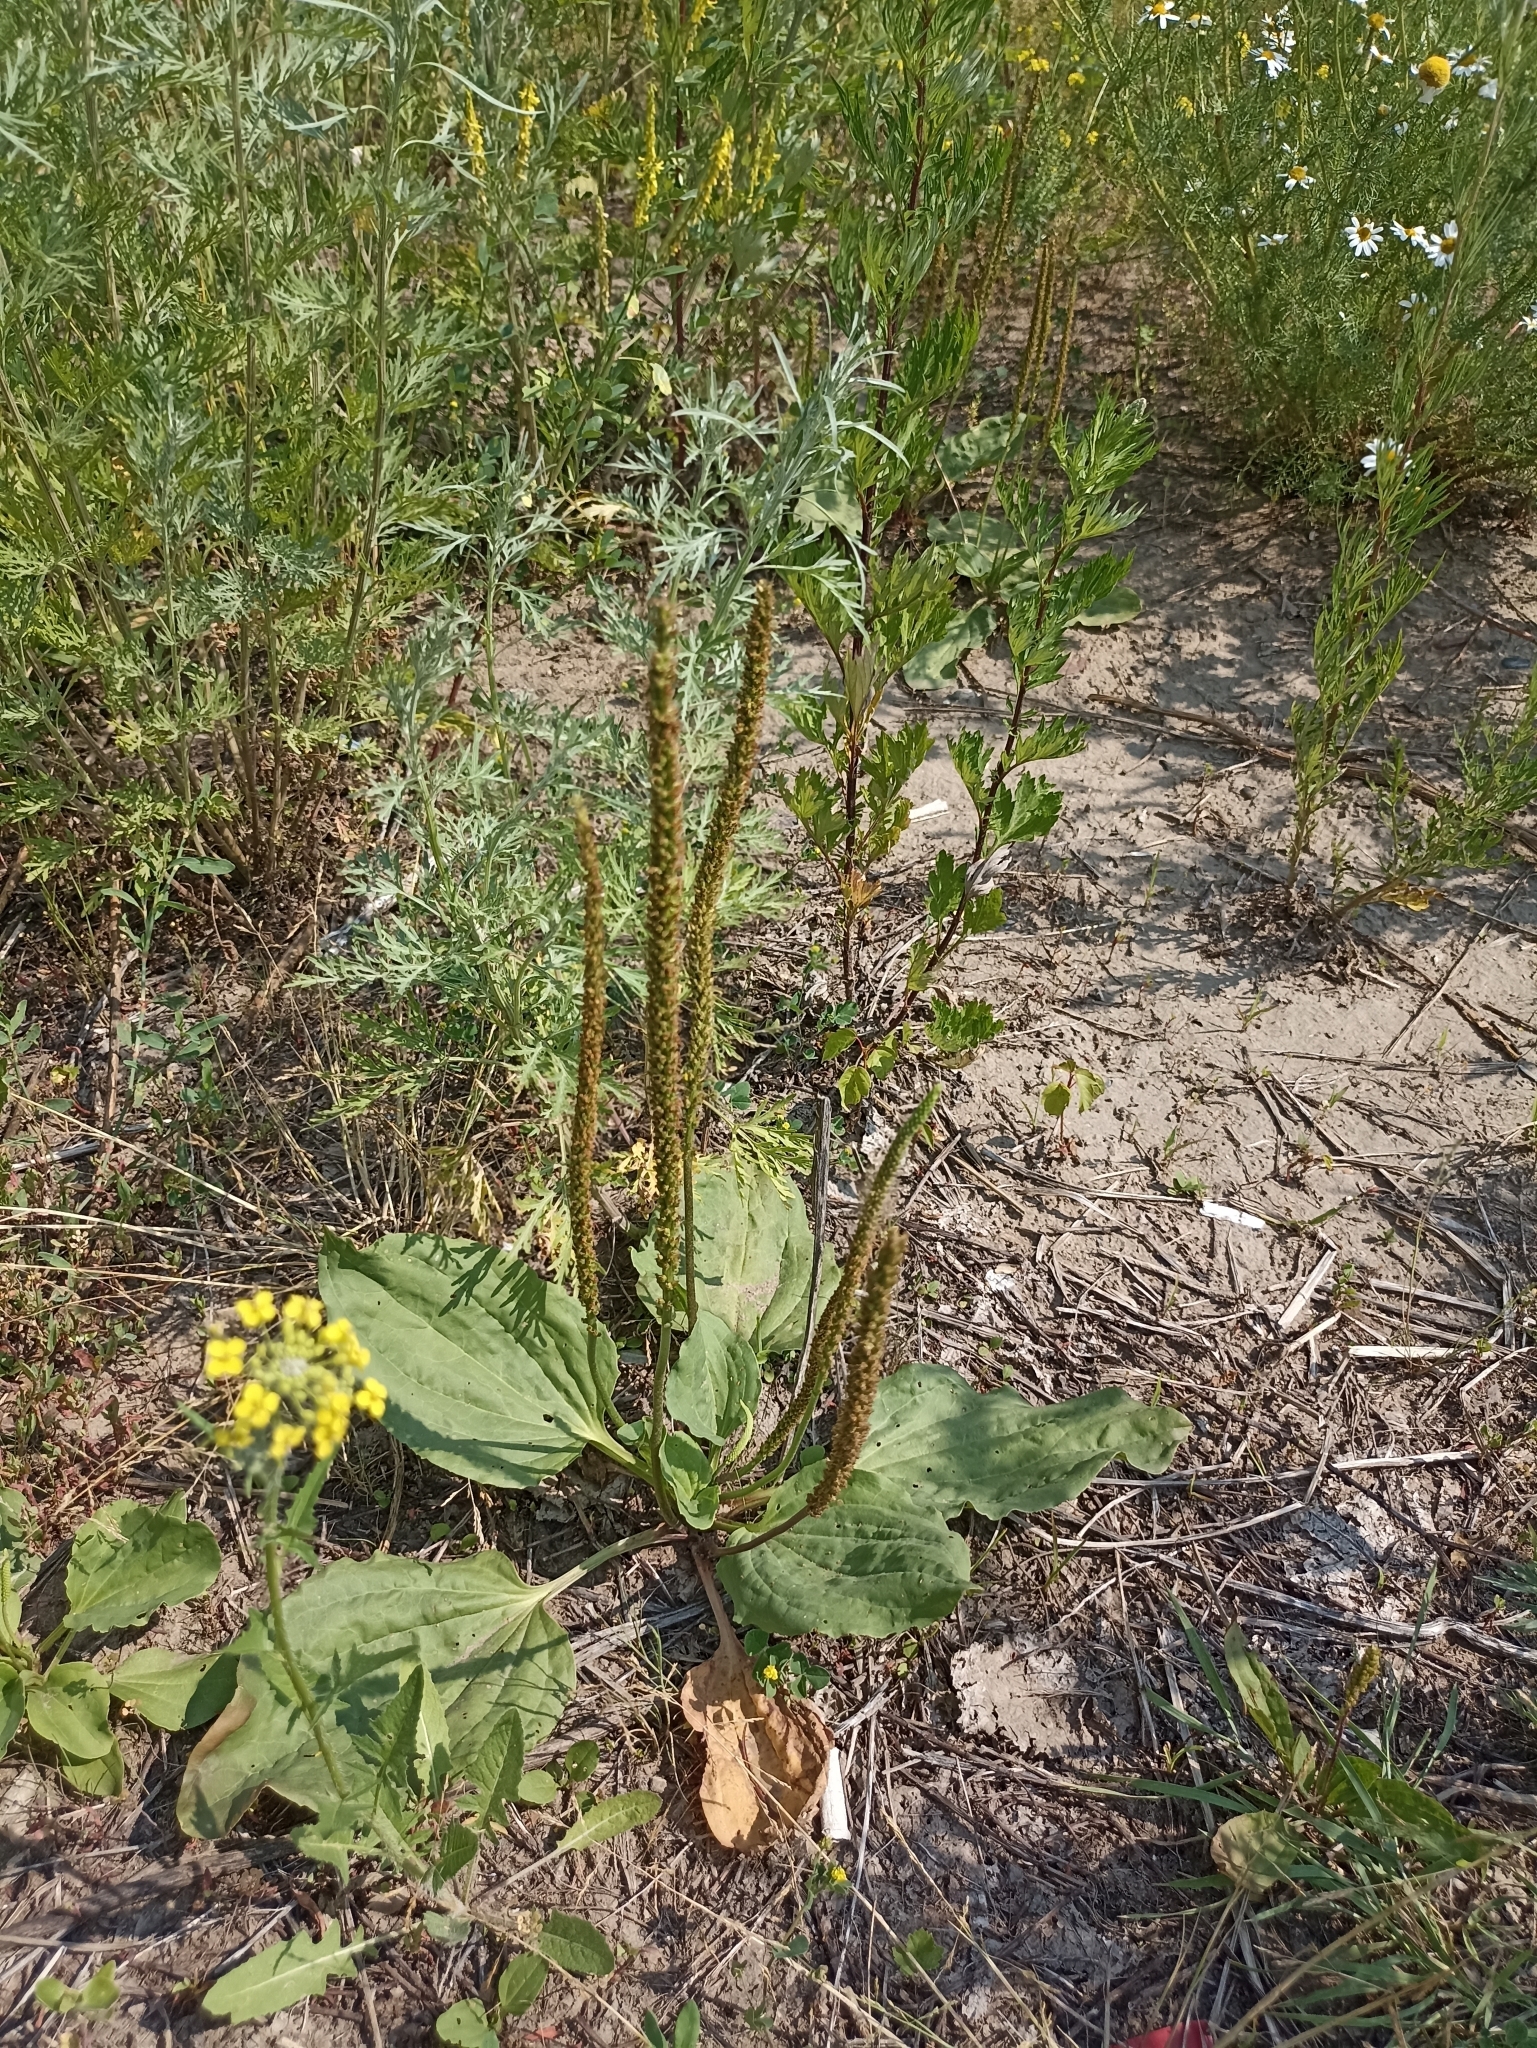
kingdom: Plantae
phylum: Tracheophyta
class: Magnoliopsida
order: Lamiales
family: Plantaginaceae
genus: Plantago
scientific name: Plantago major
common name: Common plantain
